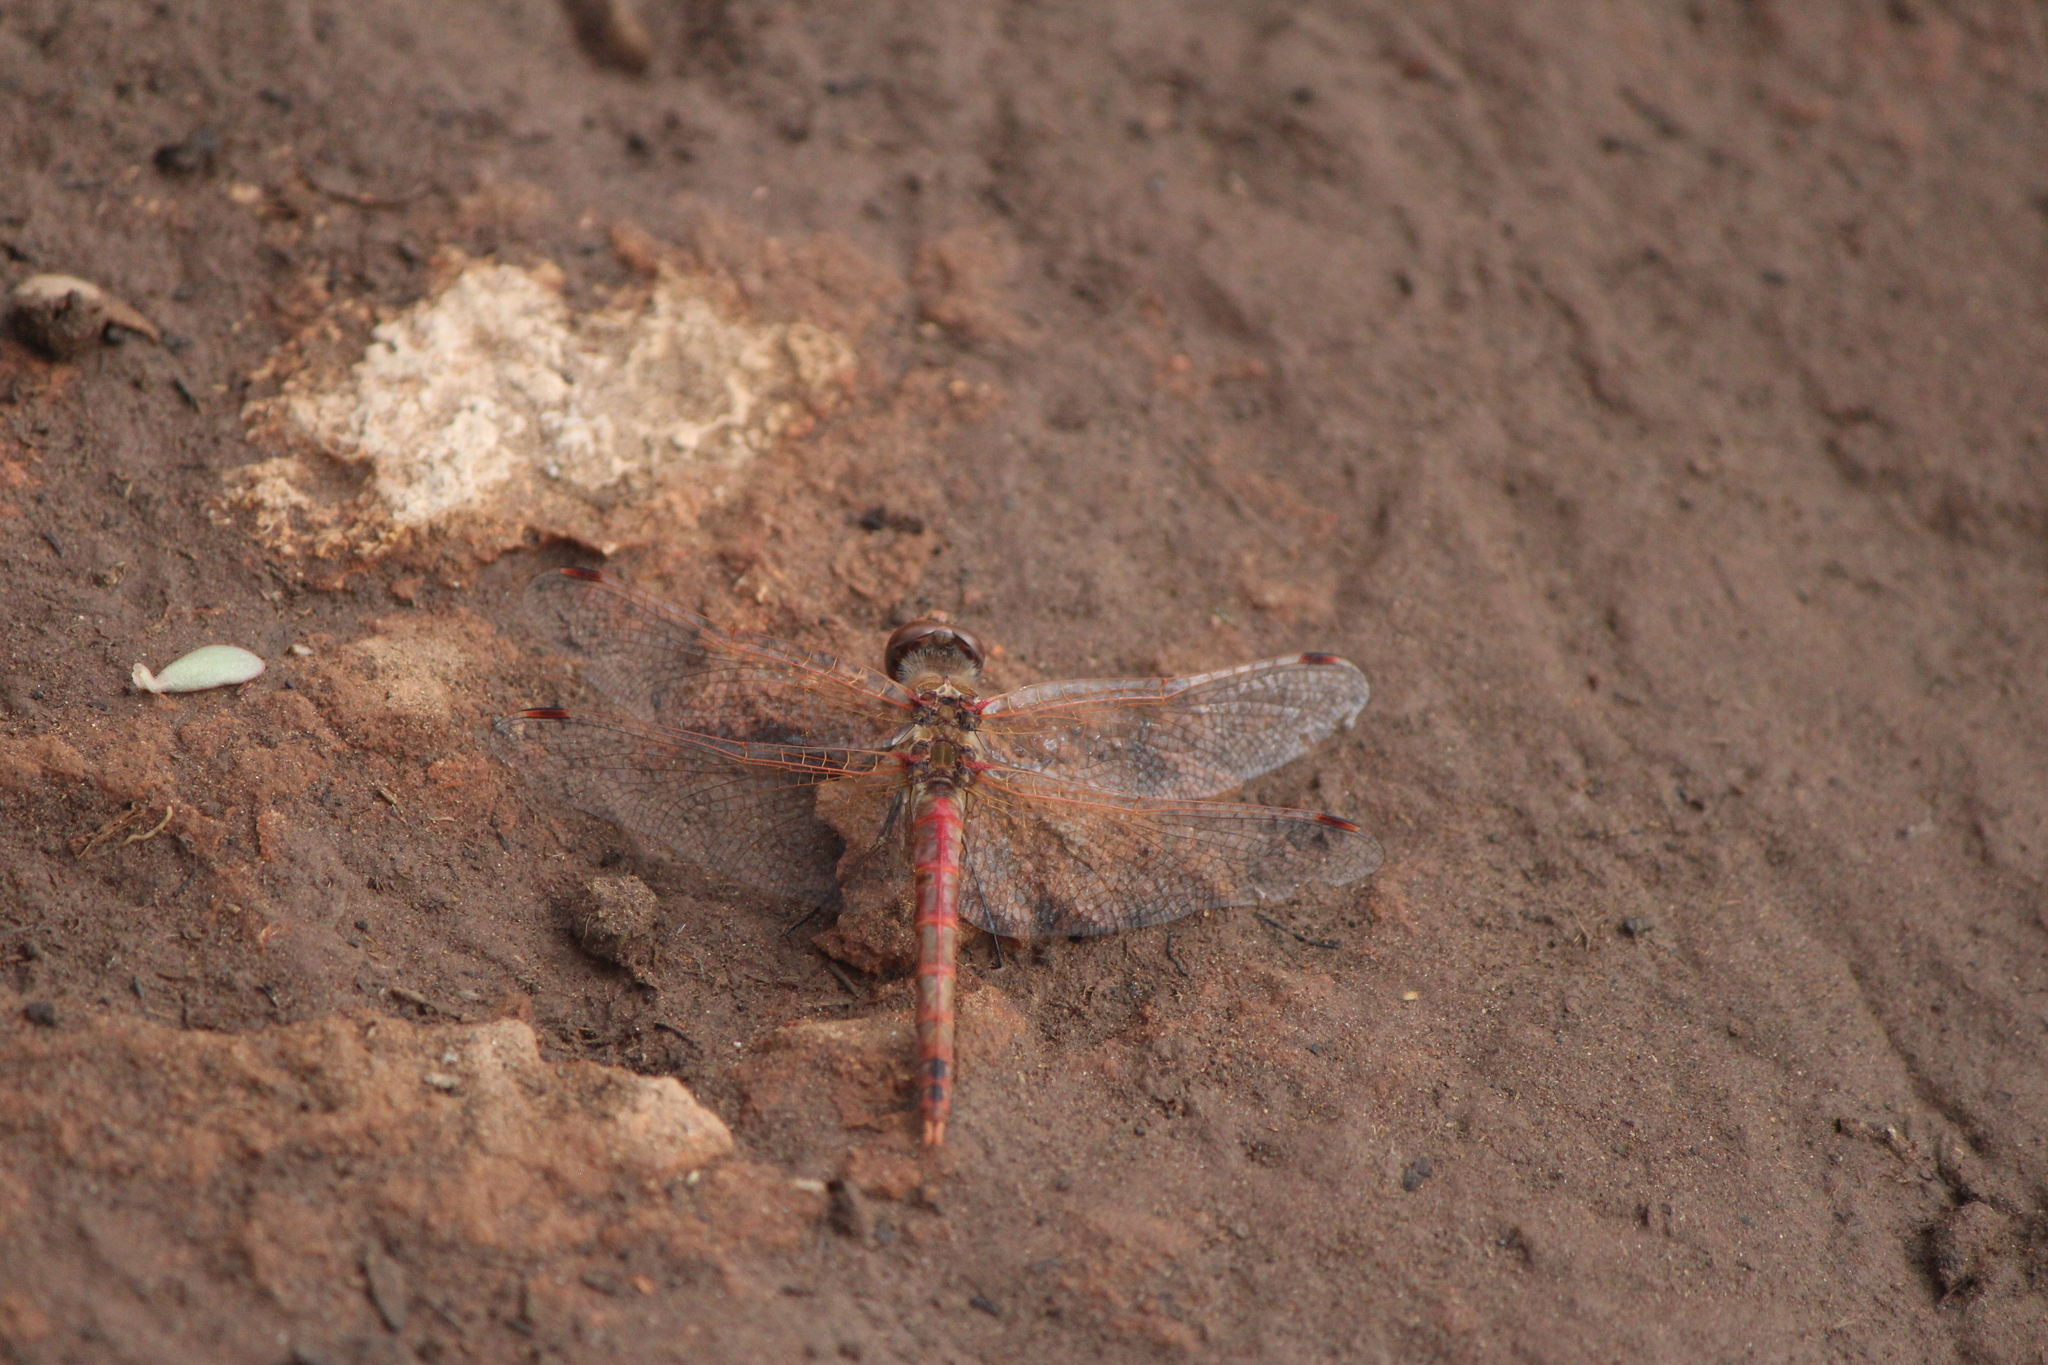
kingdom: Animalia
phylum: Arthropoda
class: Insecta
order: Odonata
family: Libellulidae
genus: Sympetrum
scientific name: Sympetrum corruptum
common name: Variegated meadowhawk
